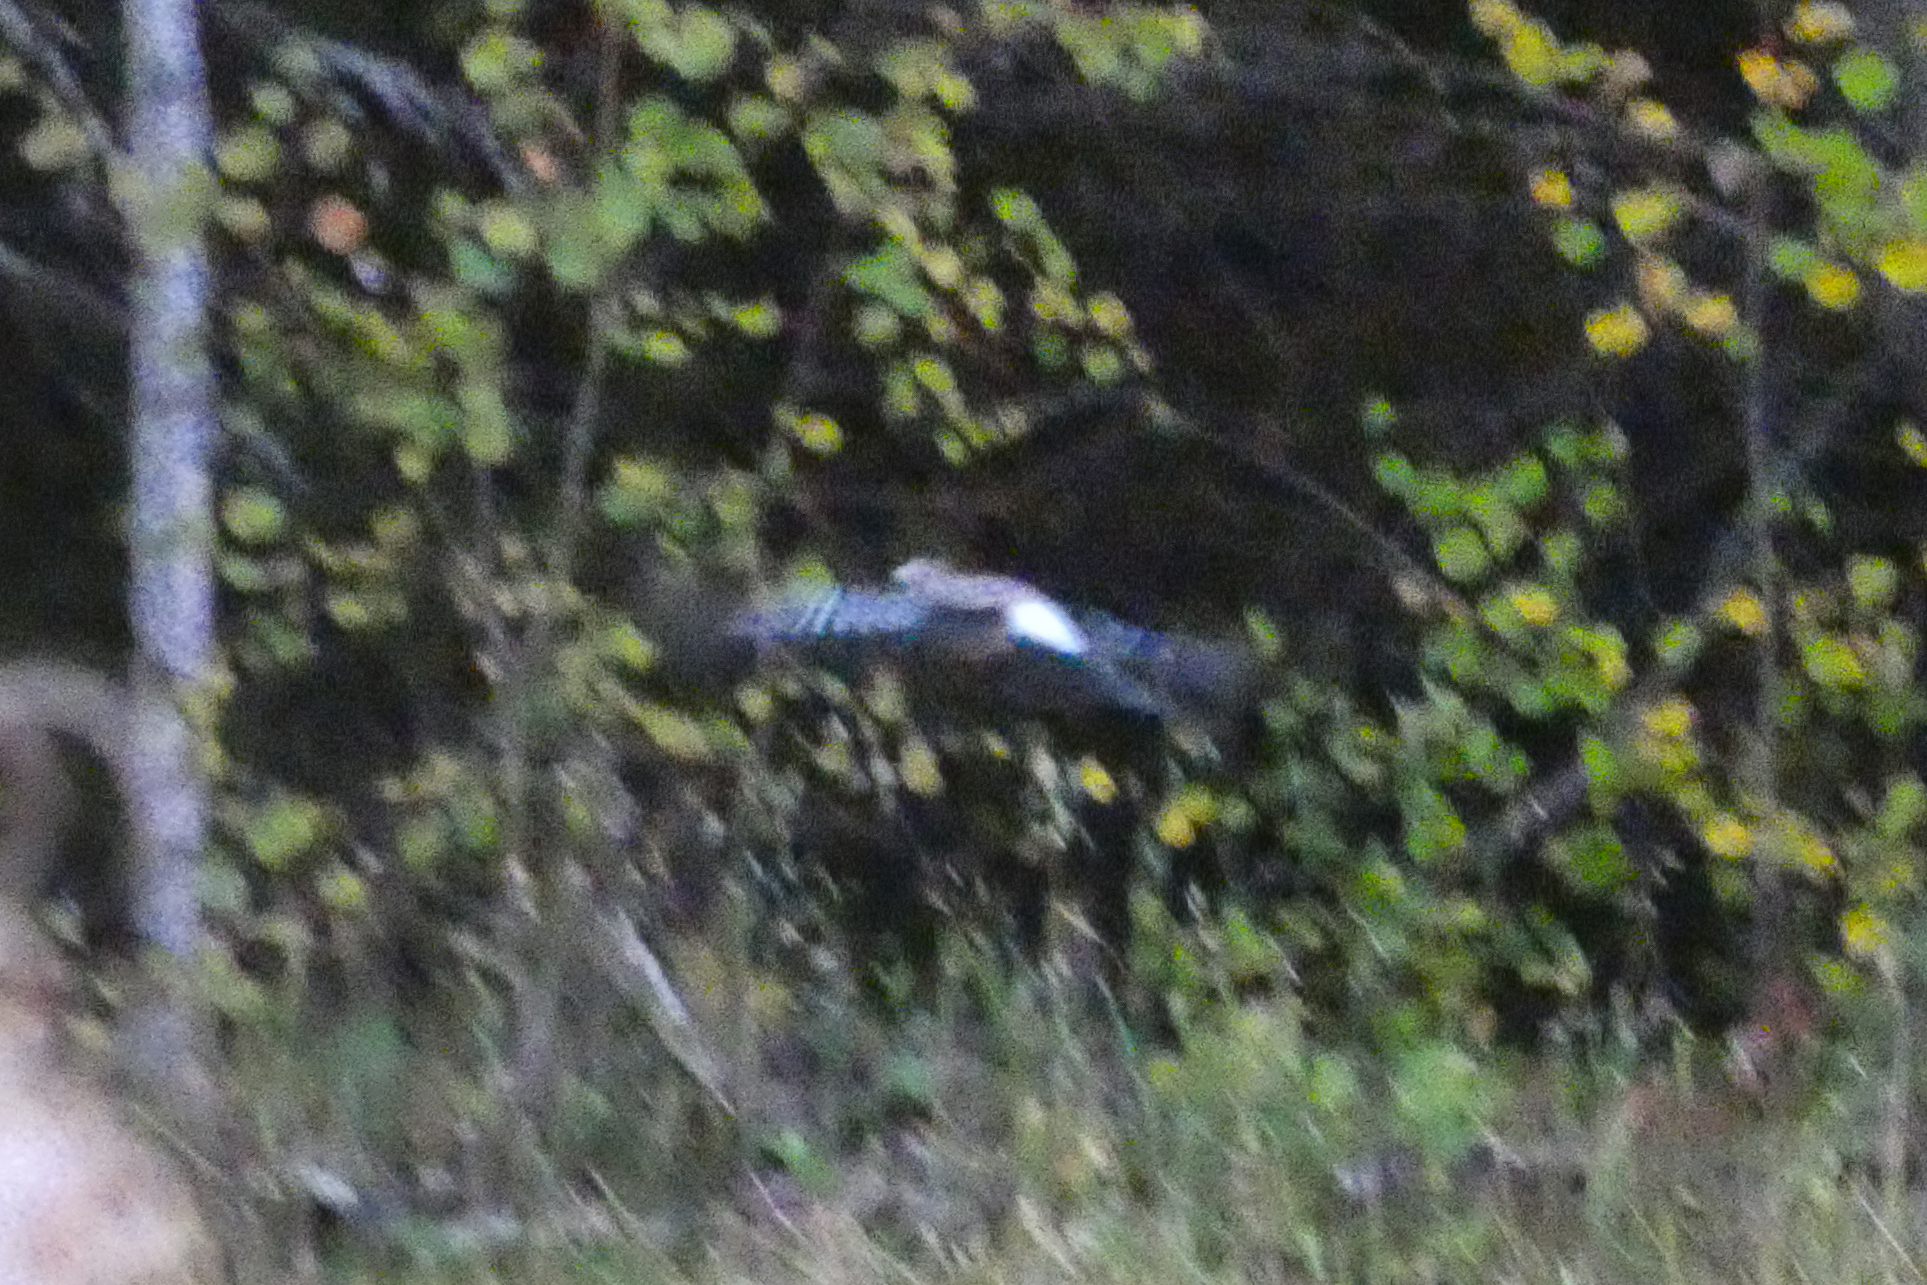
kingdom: Animalia
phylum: Chordata
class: Aves
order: Passeriformes
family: Corvidae
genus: Garrulus
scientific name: Garrulus glandarius
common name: Eurasian jay
